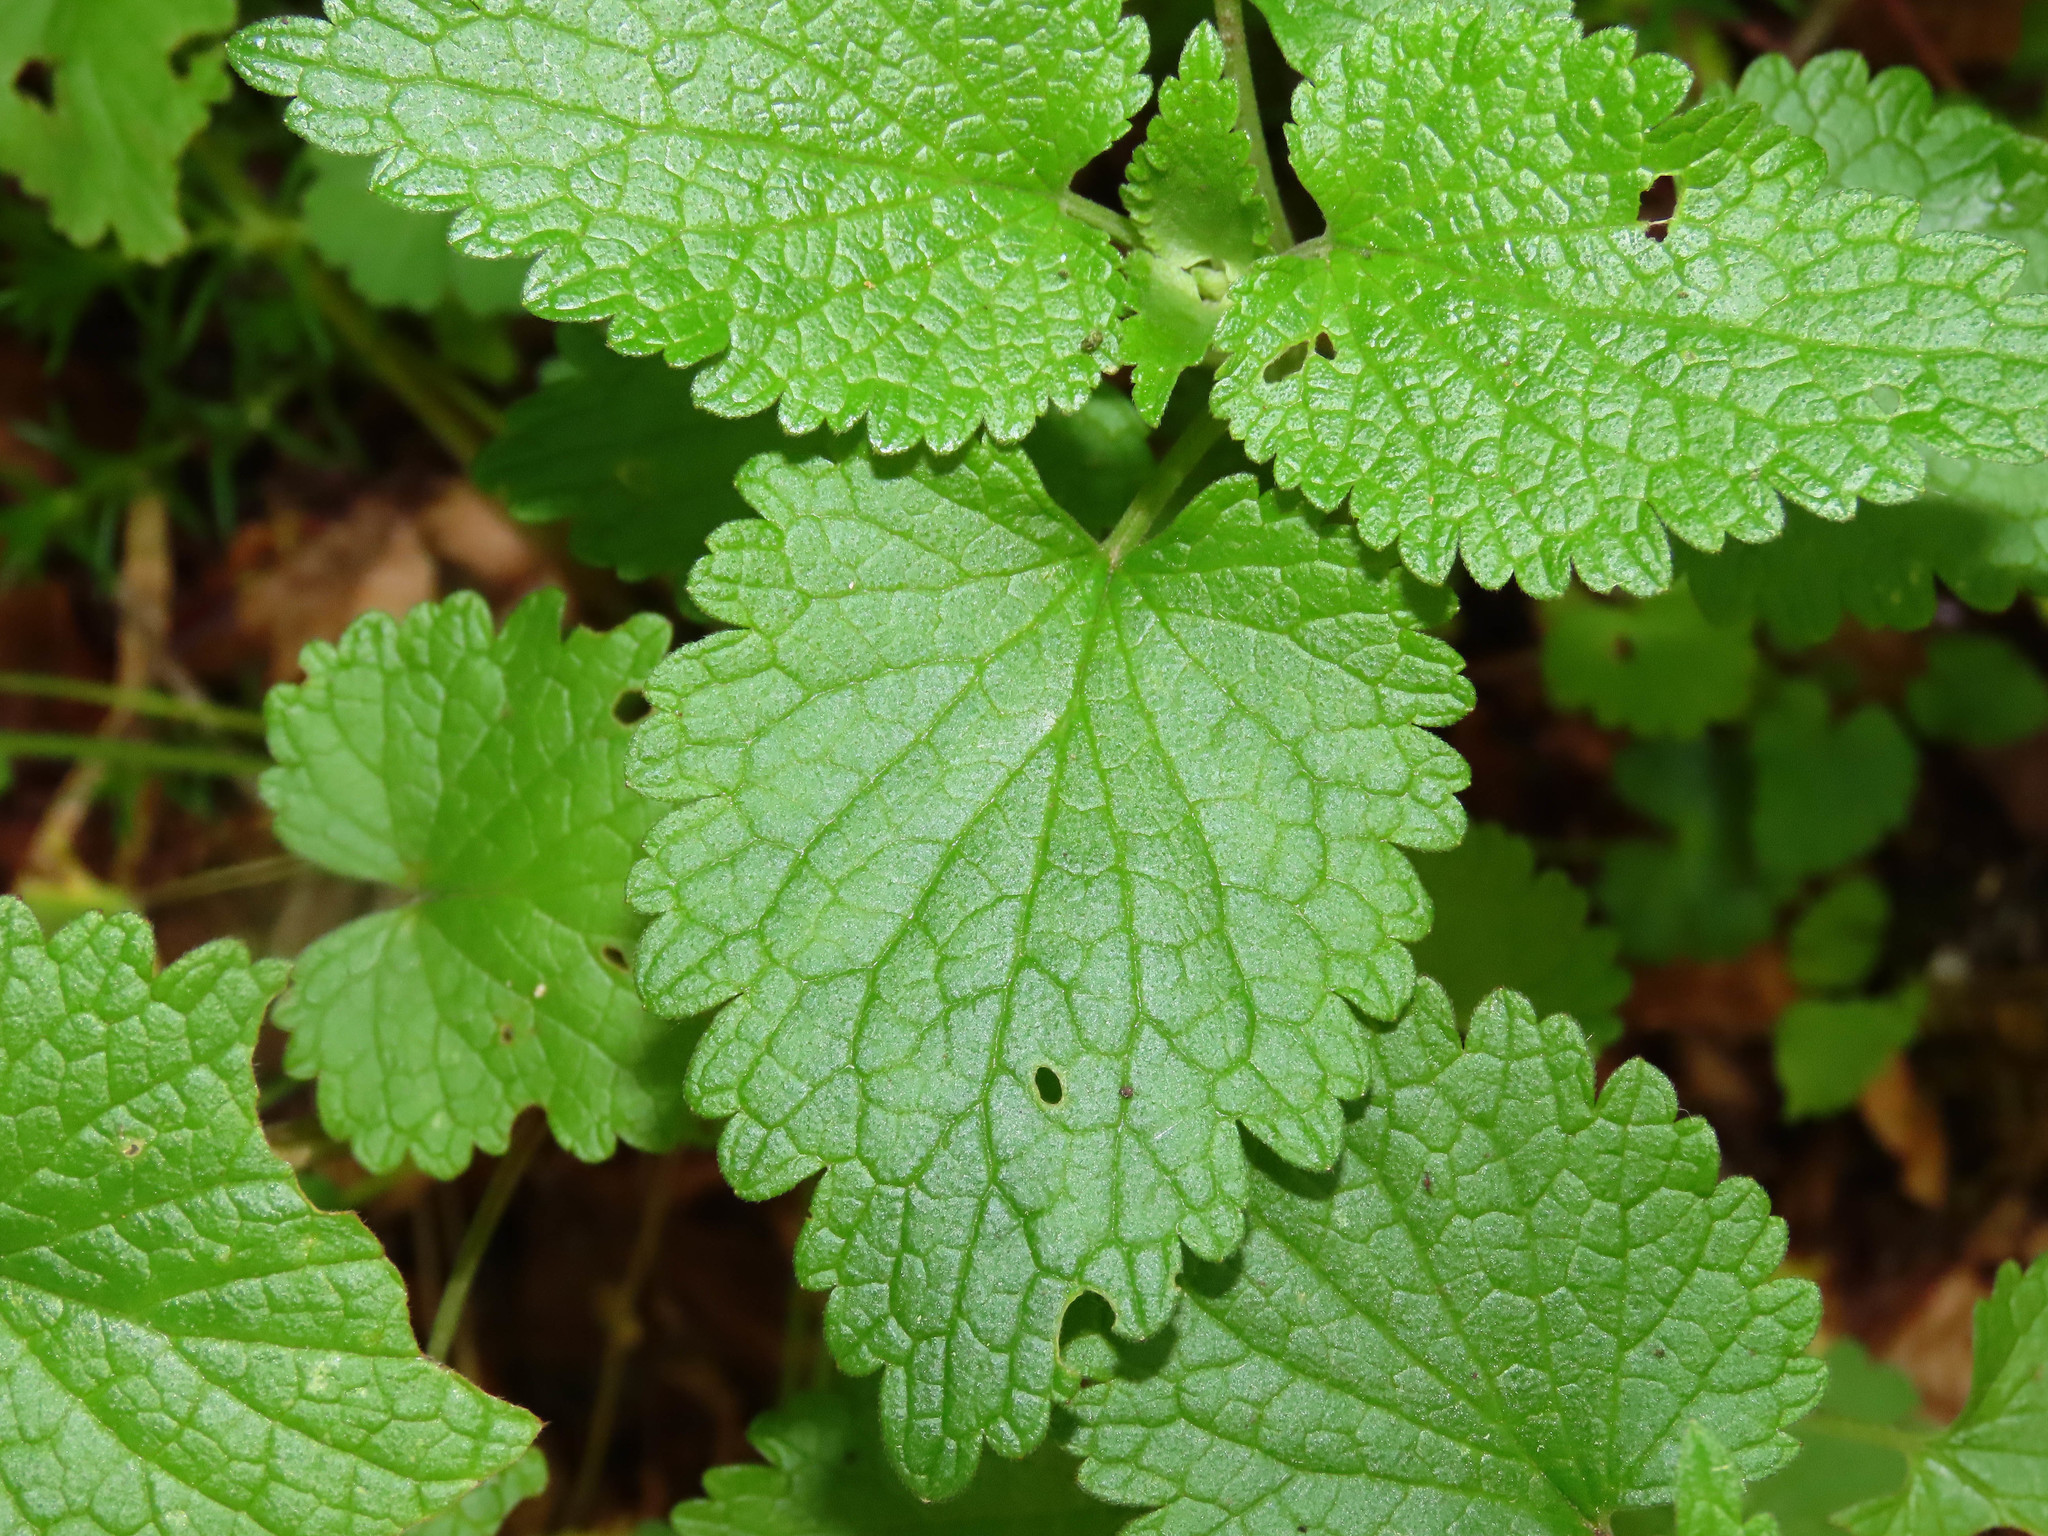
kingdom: Plantae
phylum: Tracheophyta
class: Magnoliopsida
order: Lamiales
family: Lamiaceae
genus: Lamium
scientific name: Lamium garganicum
